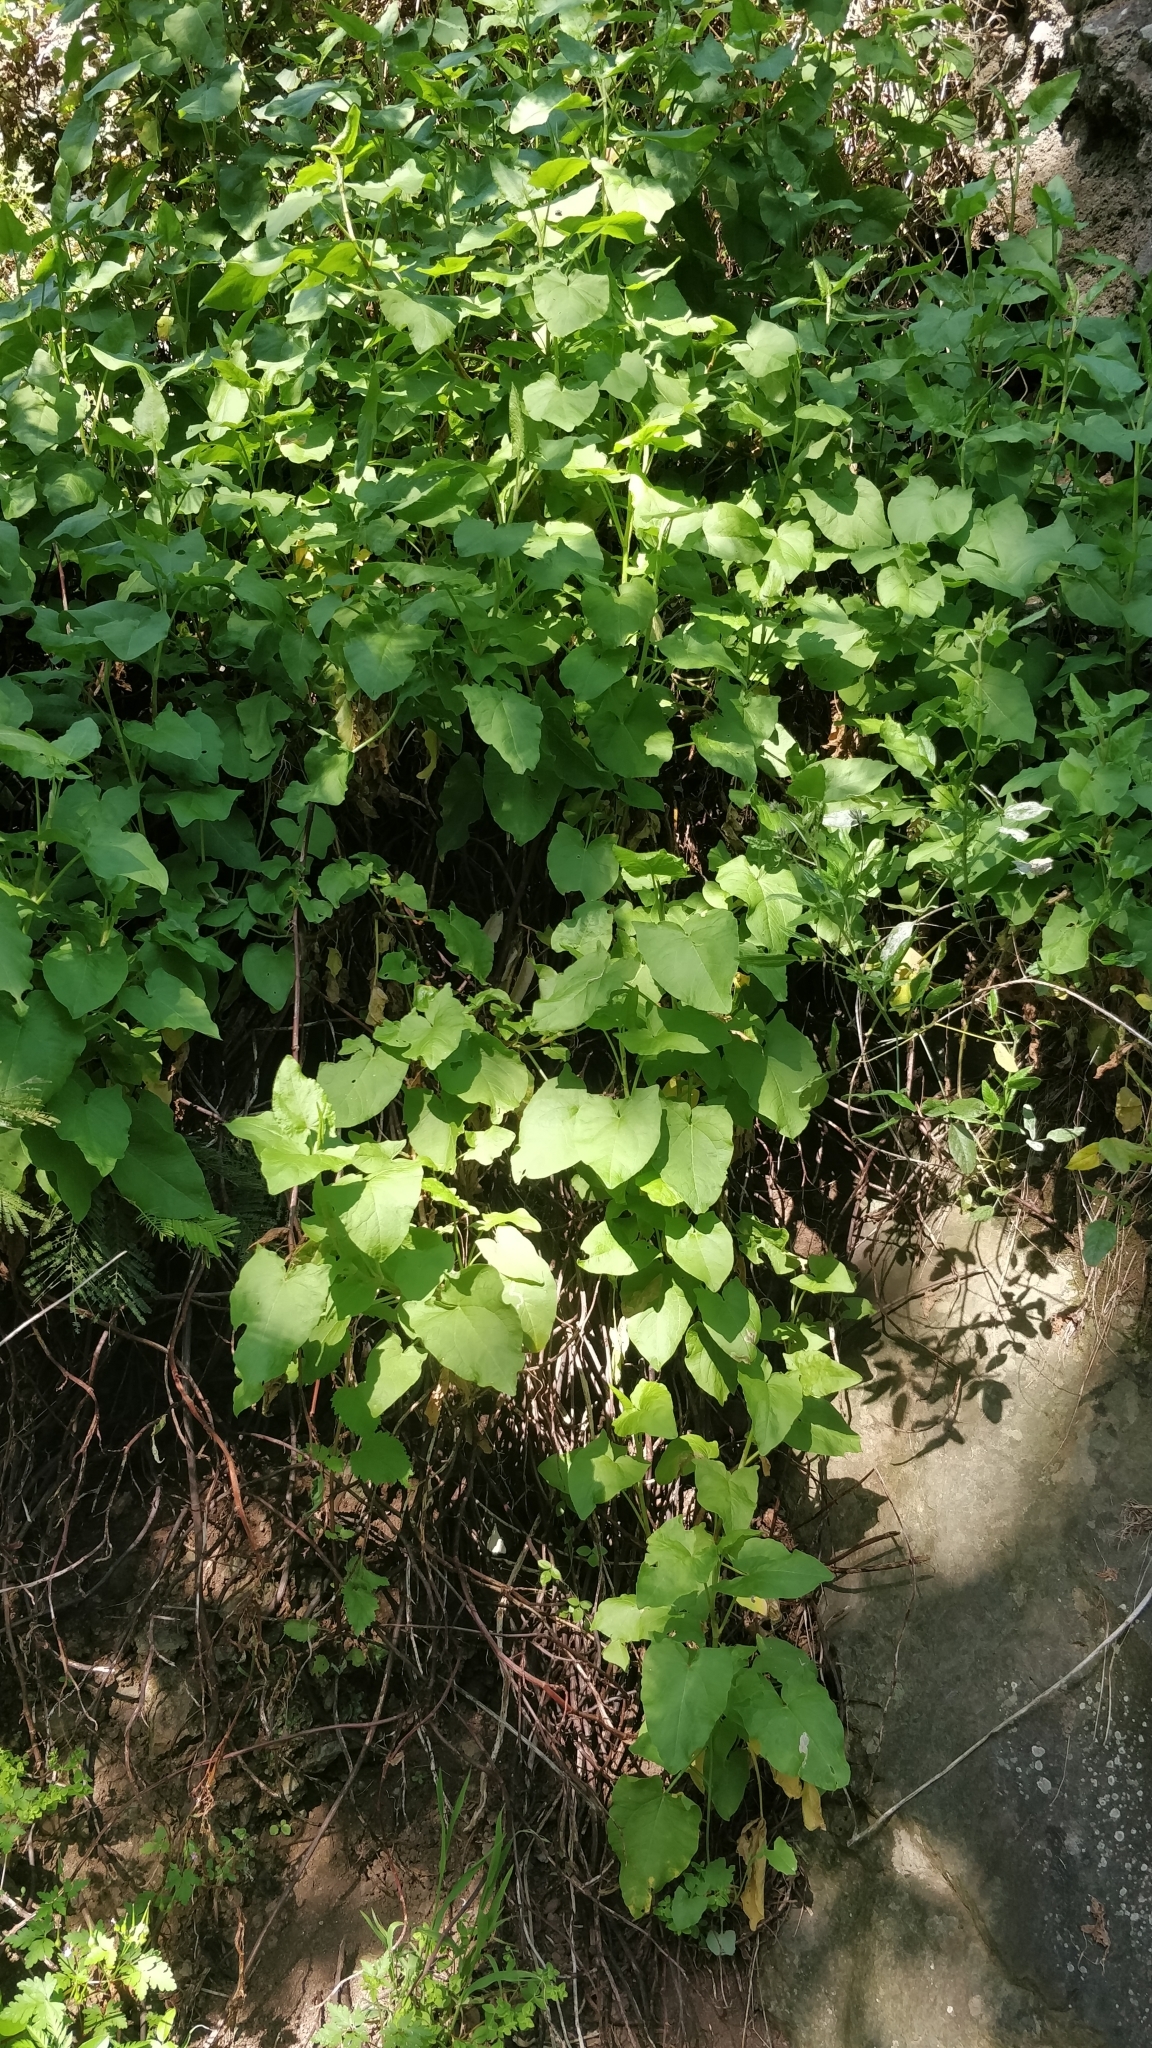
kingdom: Plantae
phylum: Tracheophyta
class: Magnoliopsida
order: Caryophyllales
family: Polygonaceae
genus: Rumex
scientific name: Rumex maderensis
